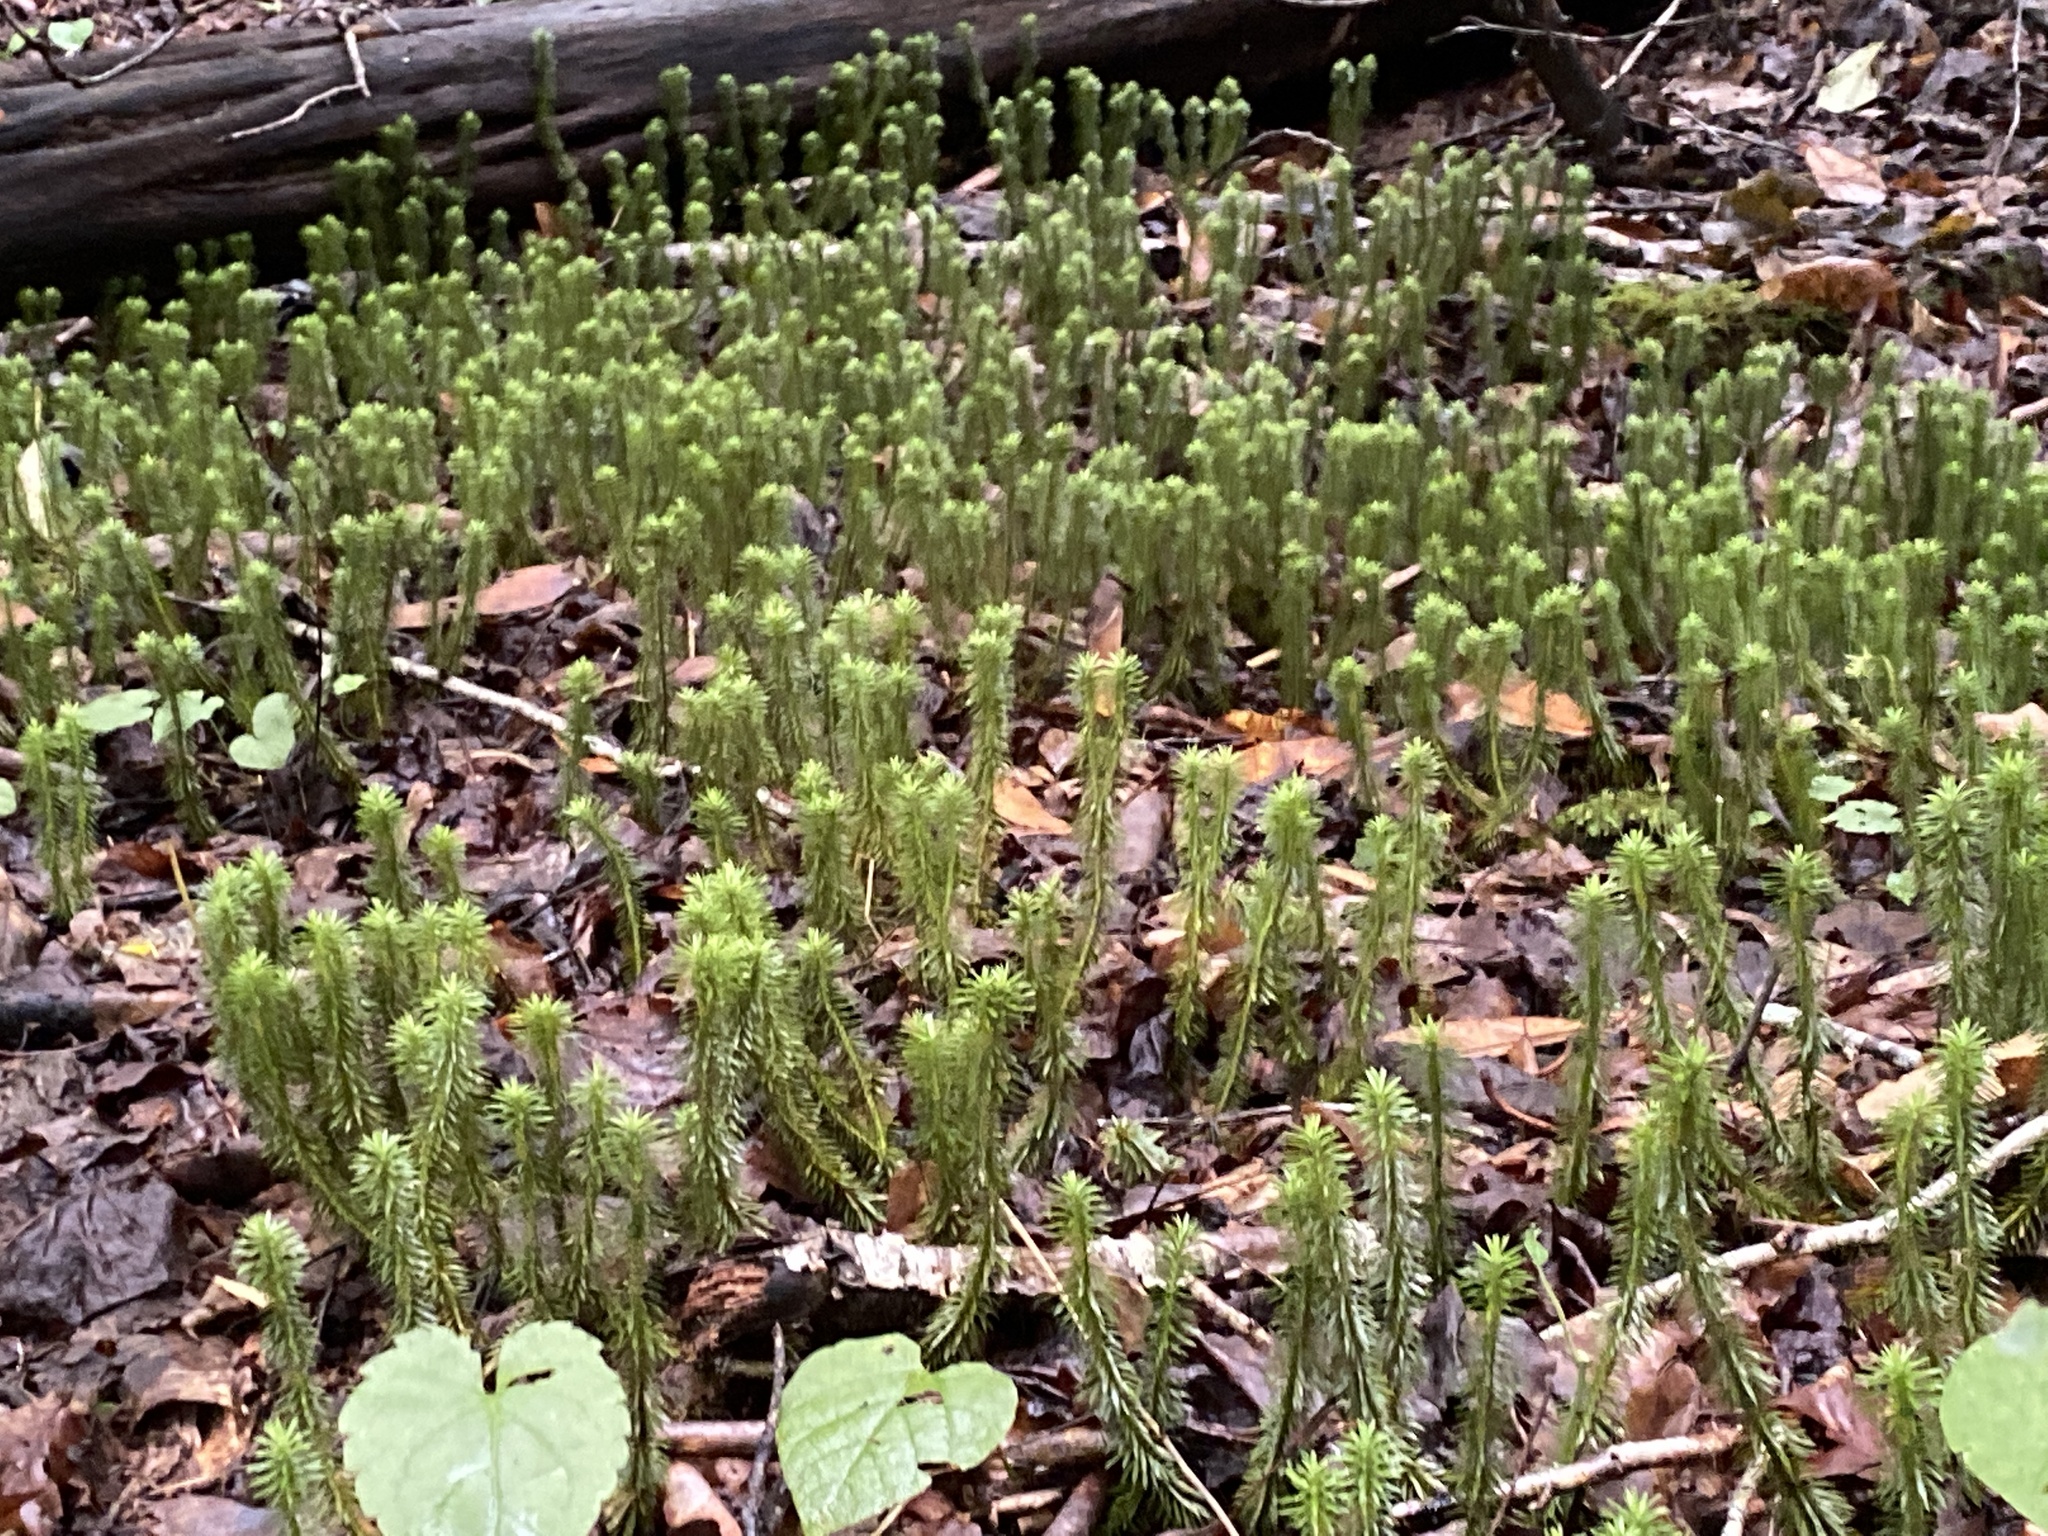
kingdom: Plantae
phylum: Tracheophyta
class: Lycopodiopsida
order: Lycopodiales
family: Lycopodiaceae
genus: Huperzia
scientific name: Huperzia lucidula
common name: Shining clubmoss
